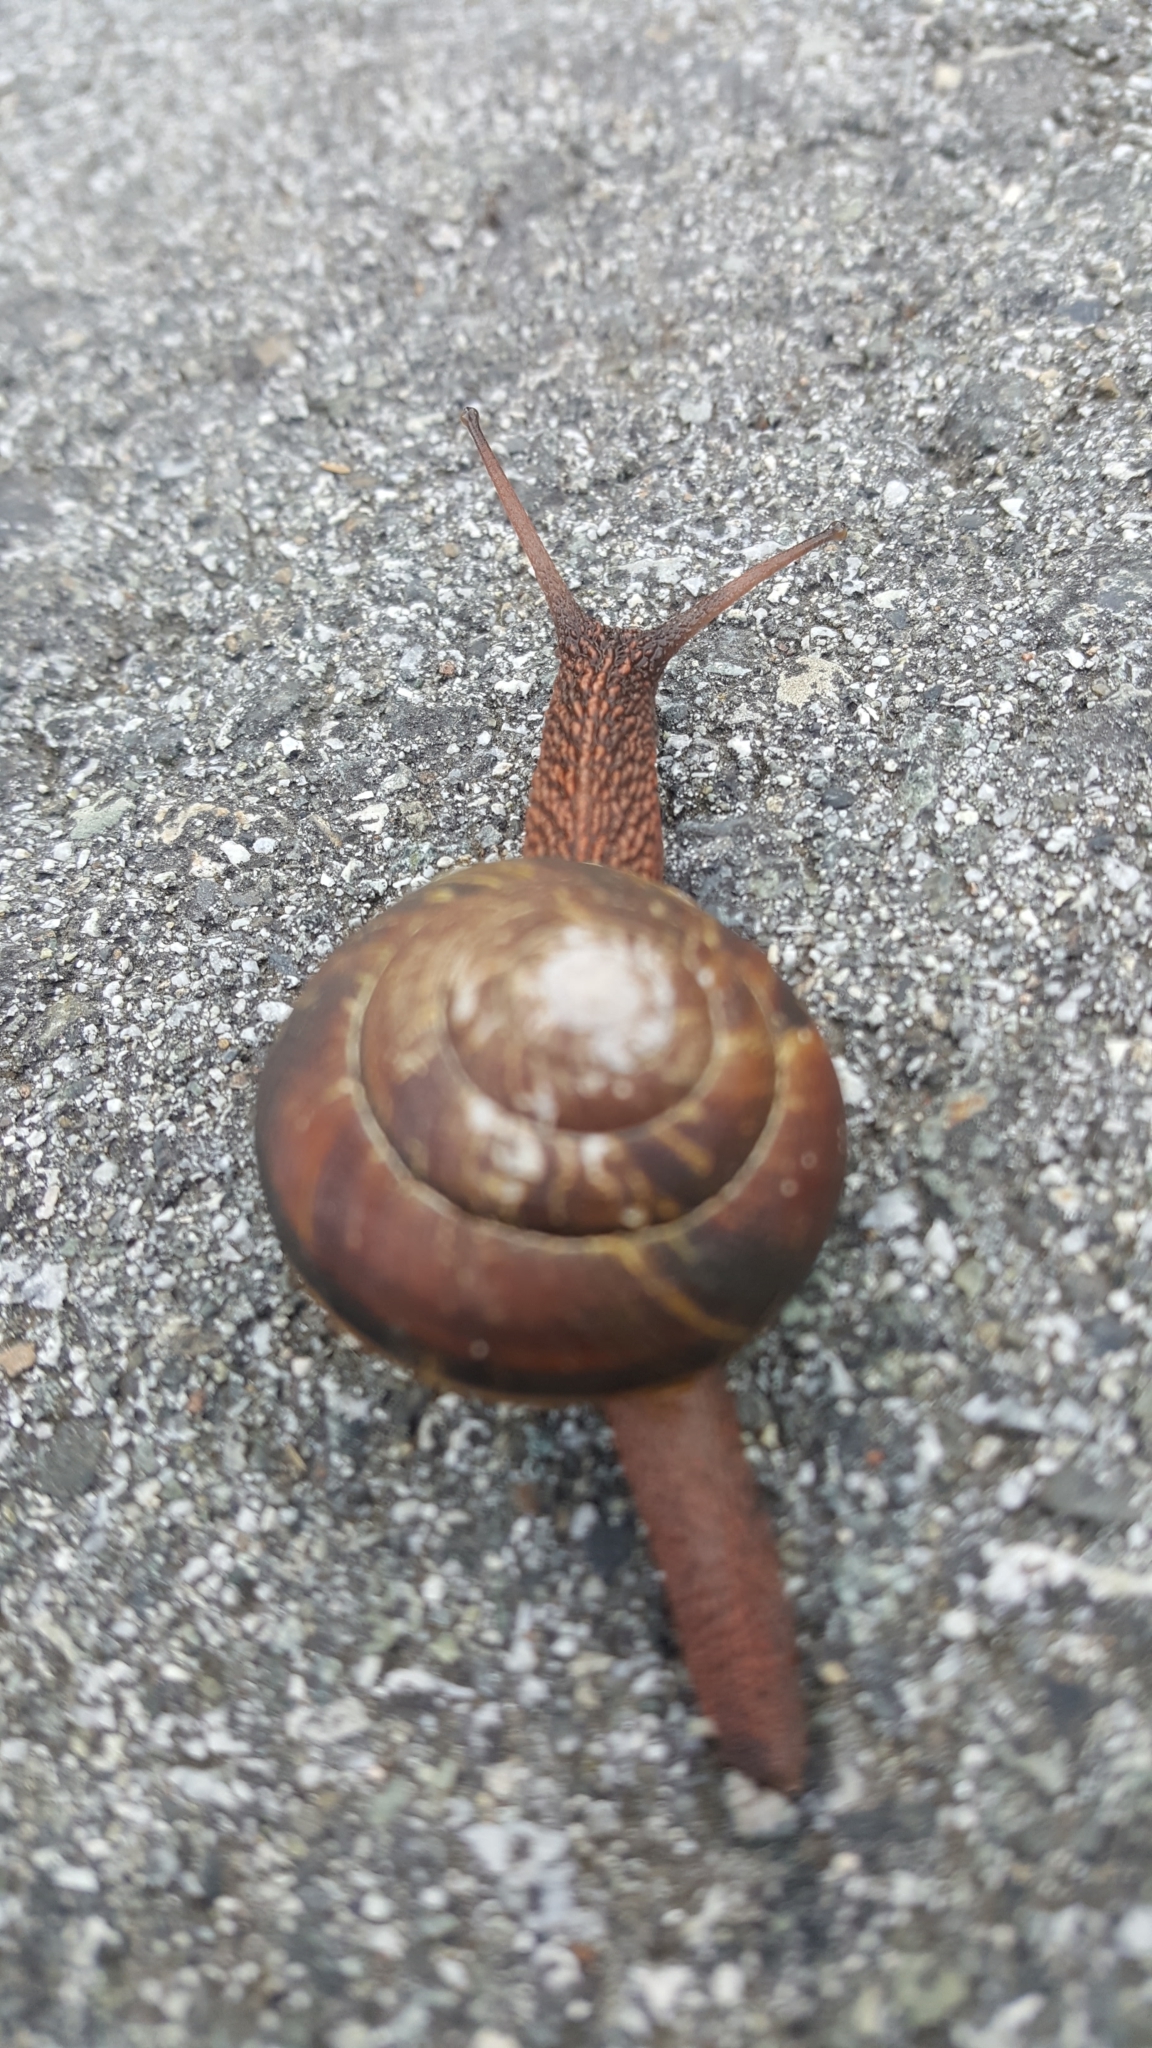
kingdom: Animalia
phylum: Mollusca
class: Gastropoda
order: Stylommatophora
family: Xanthonychidae
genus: Monadenia
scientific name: Monadenia fidelis
